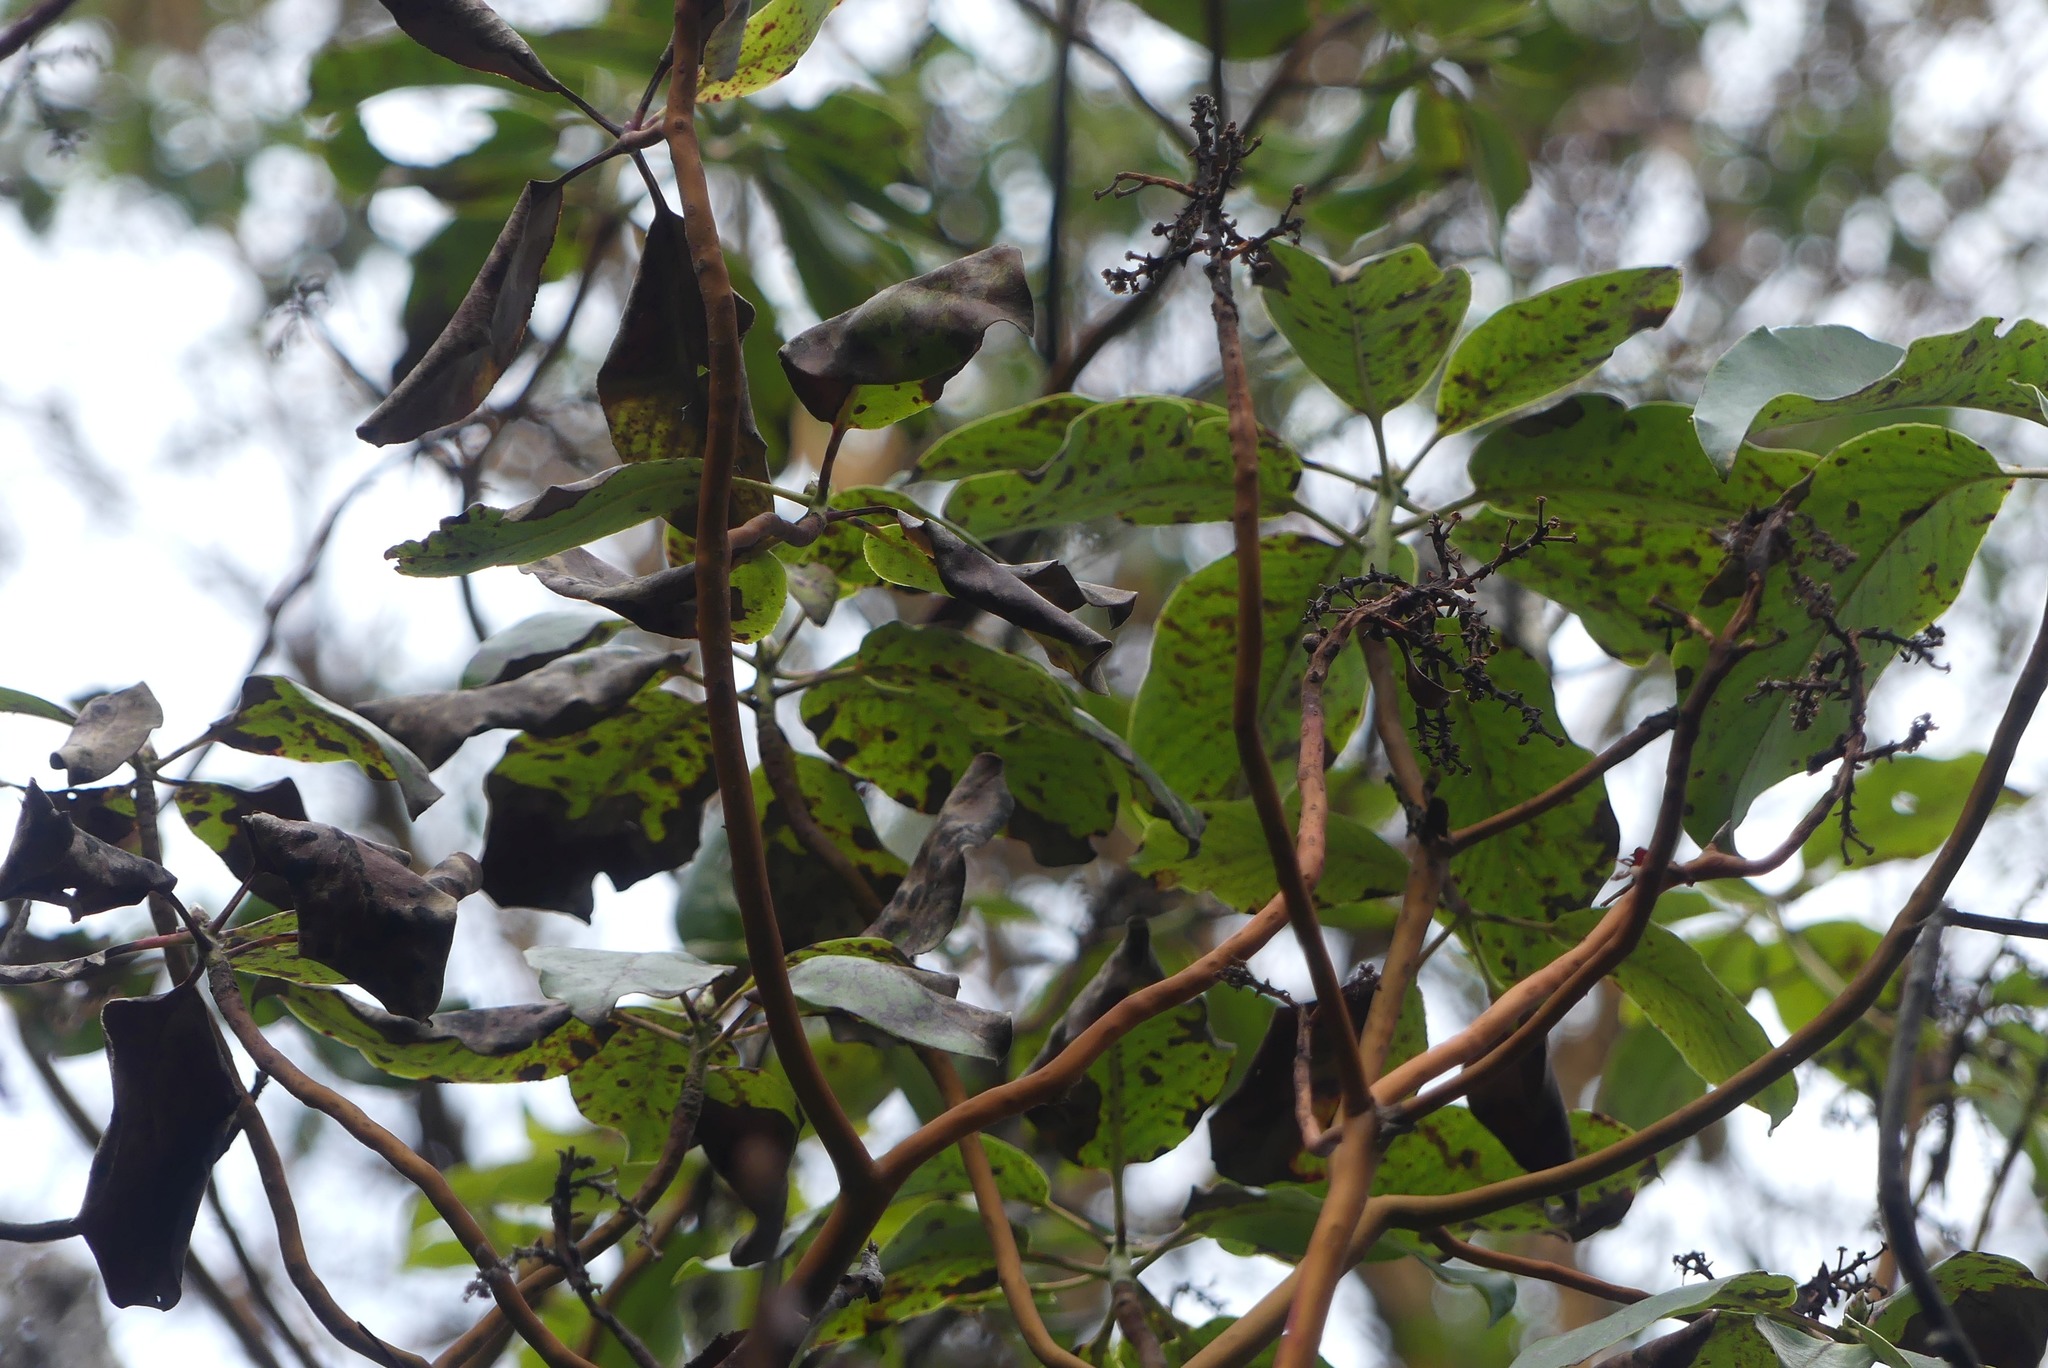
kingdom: Plantae
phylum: Tracheophyta
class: Magnoliopsida
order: Ericales
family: Ericaceae
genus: Arbutus
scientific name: Arbutus menziesii
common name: Pacific madrone
